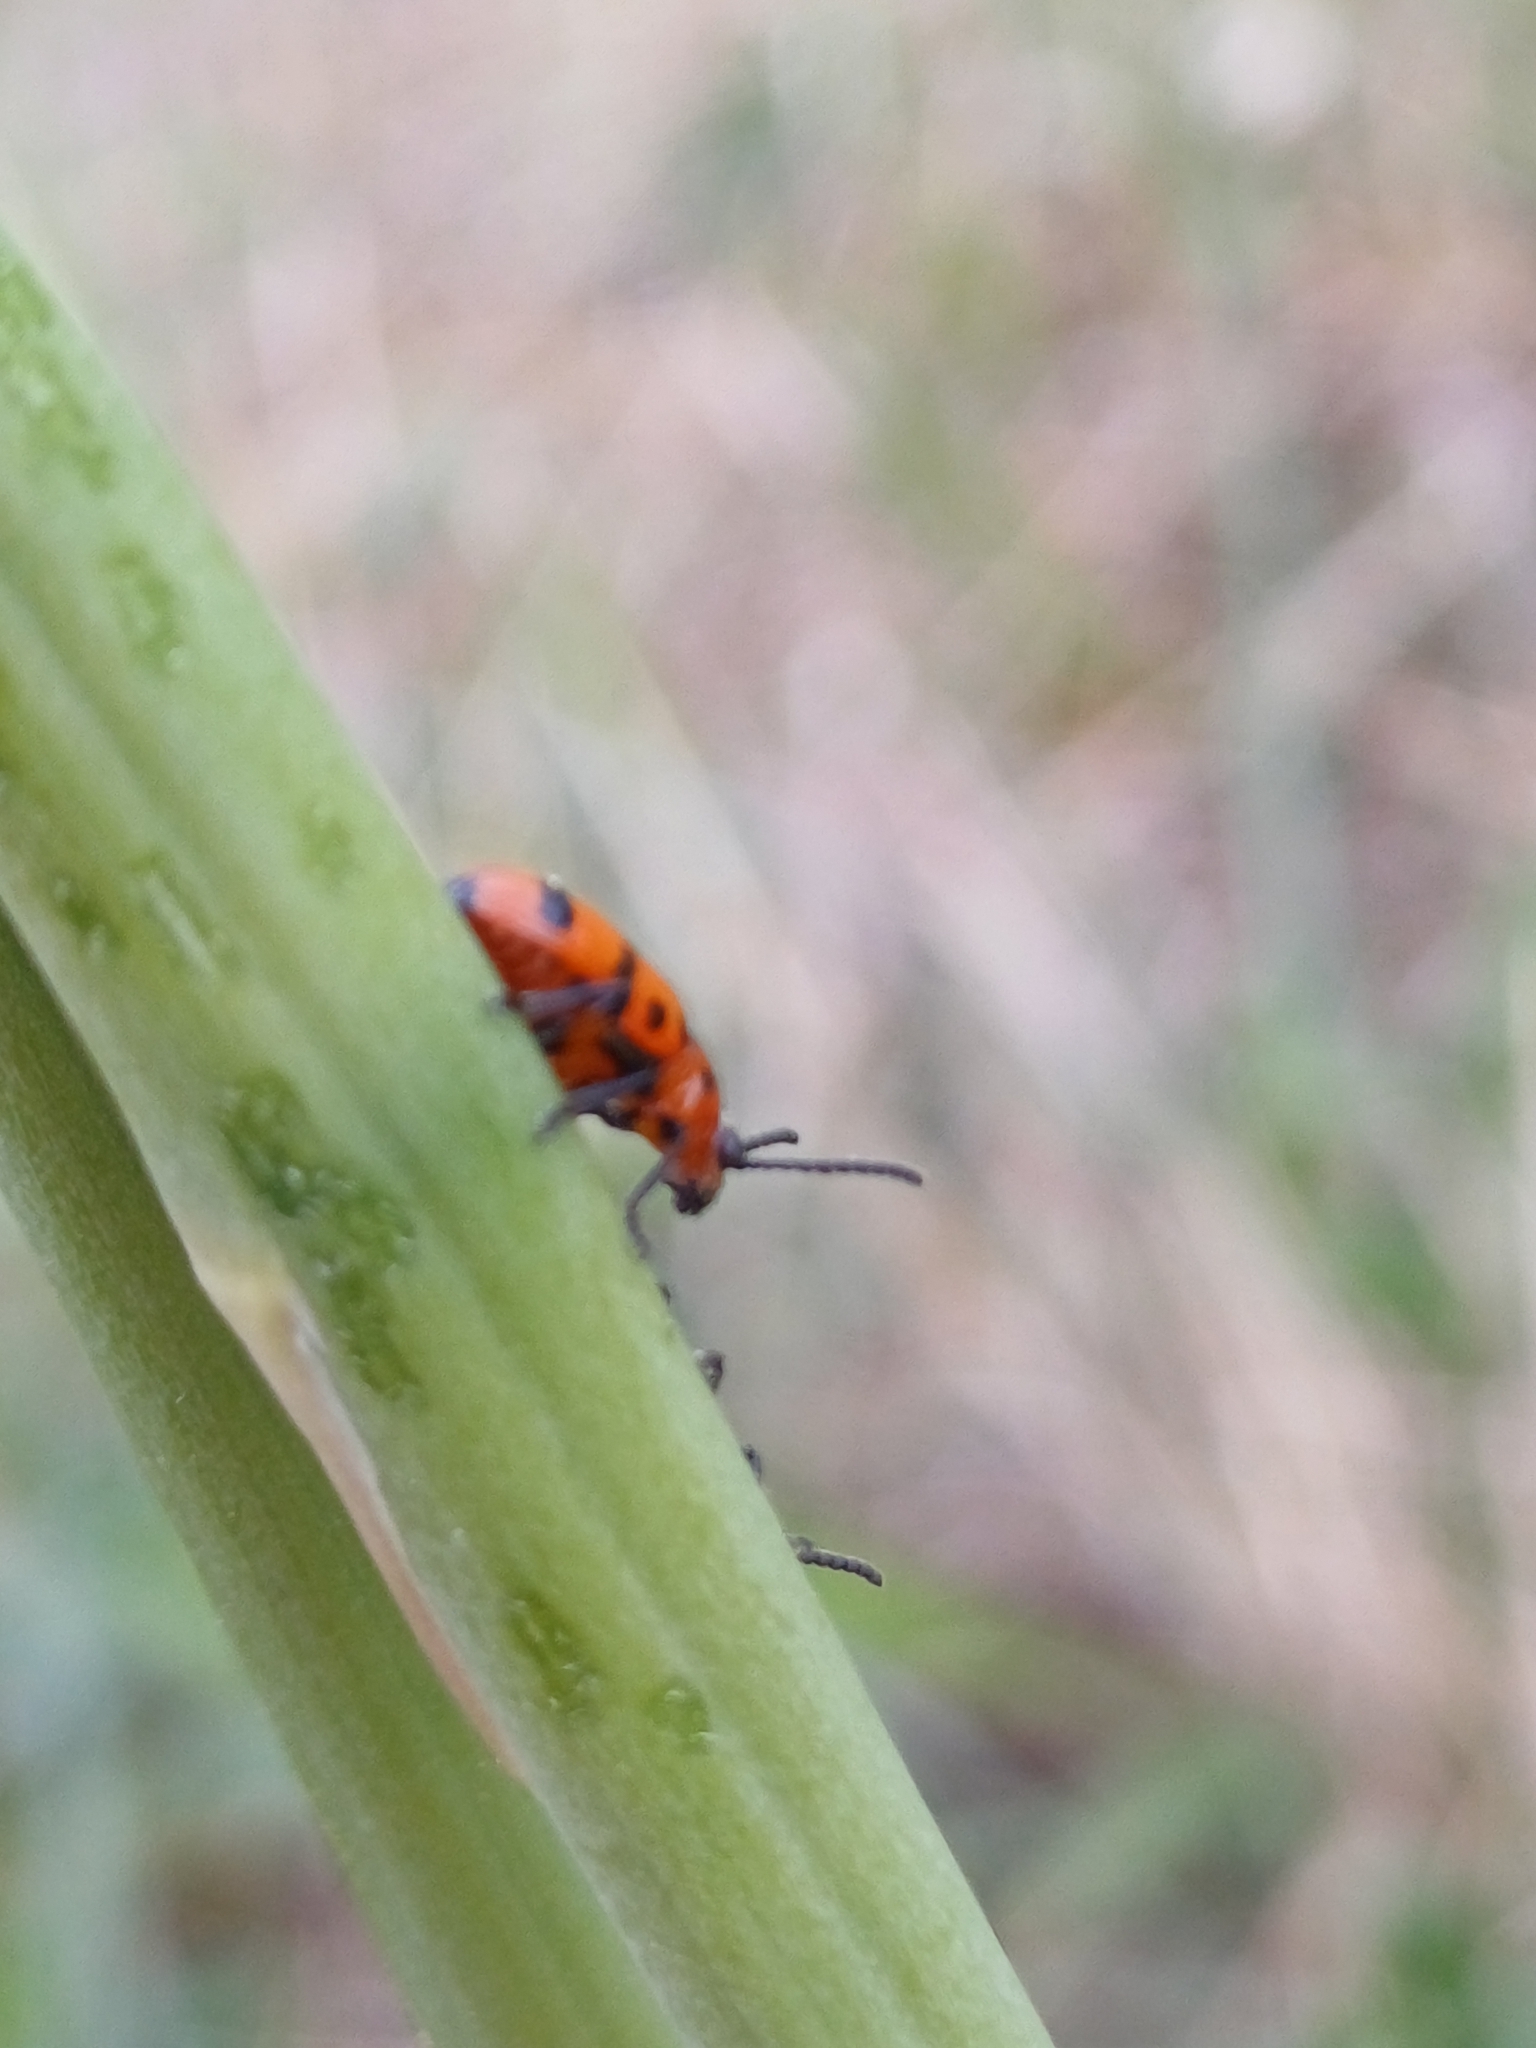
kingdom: Animalia
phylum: Arthropoda
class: Insecta
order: Coleoptera
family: Chrysomelidae
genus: Crioceris
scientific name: Crioceris quatuordecimpunctata
